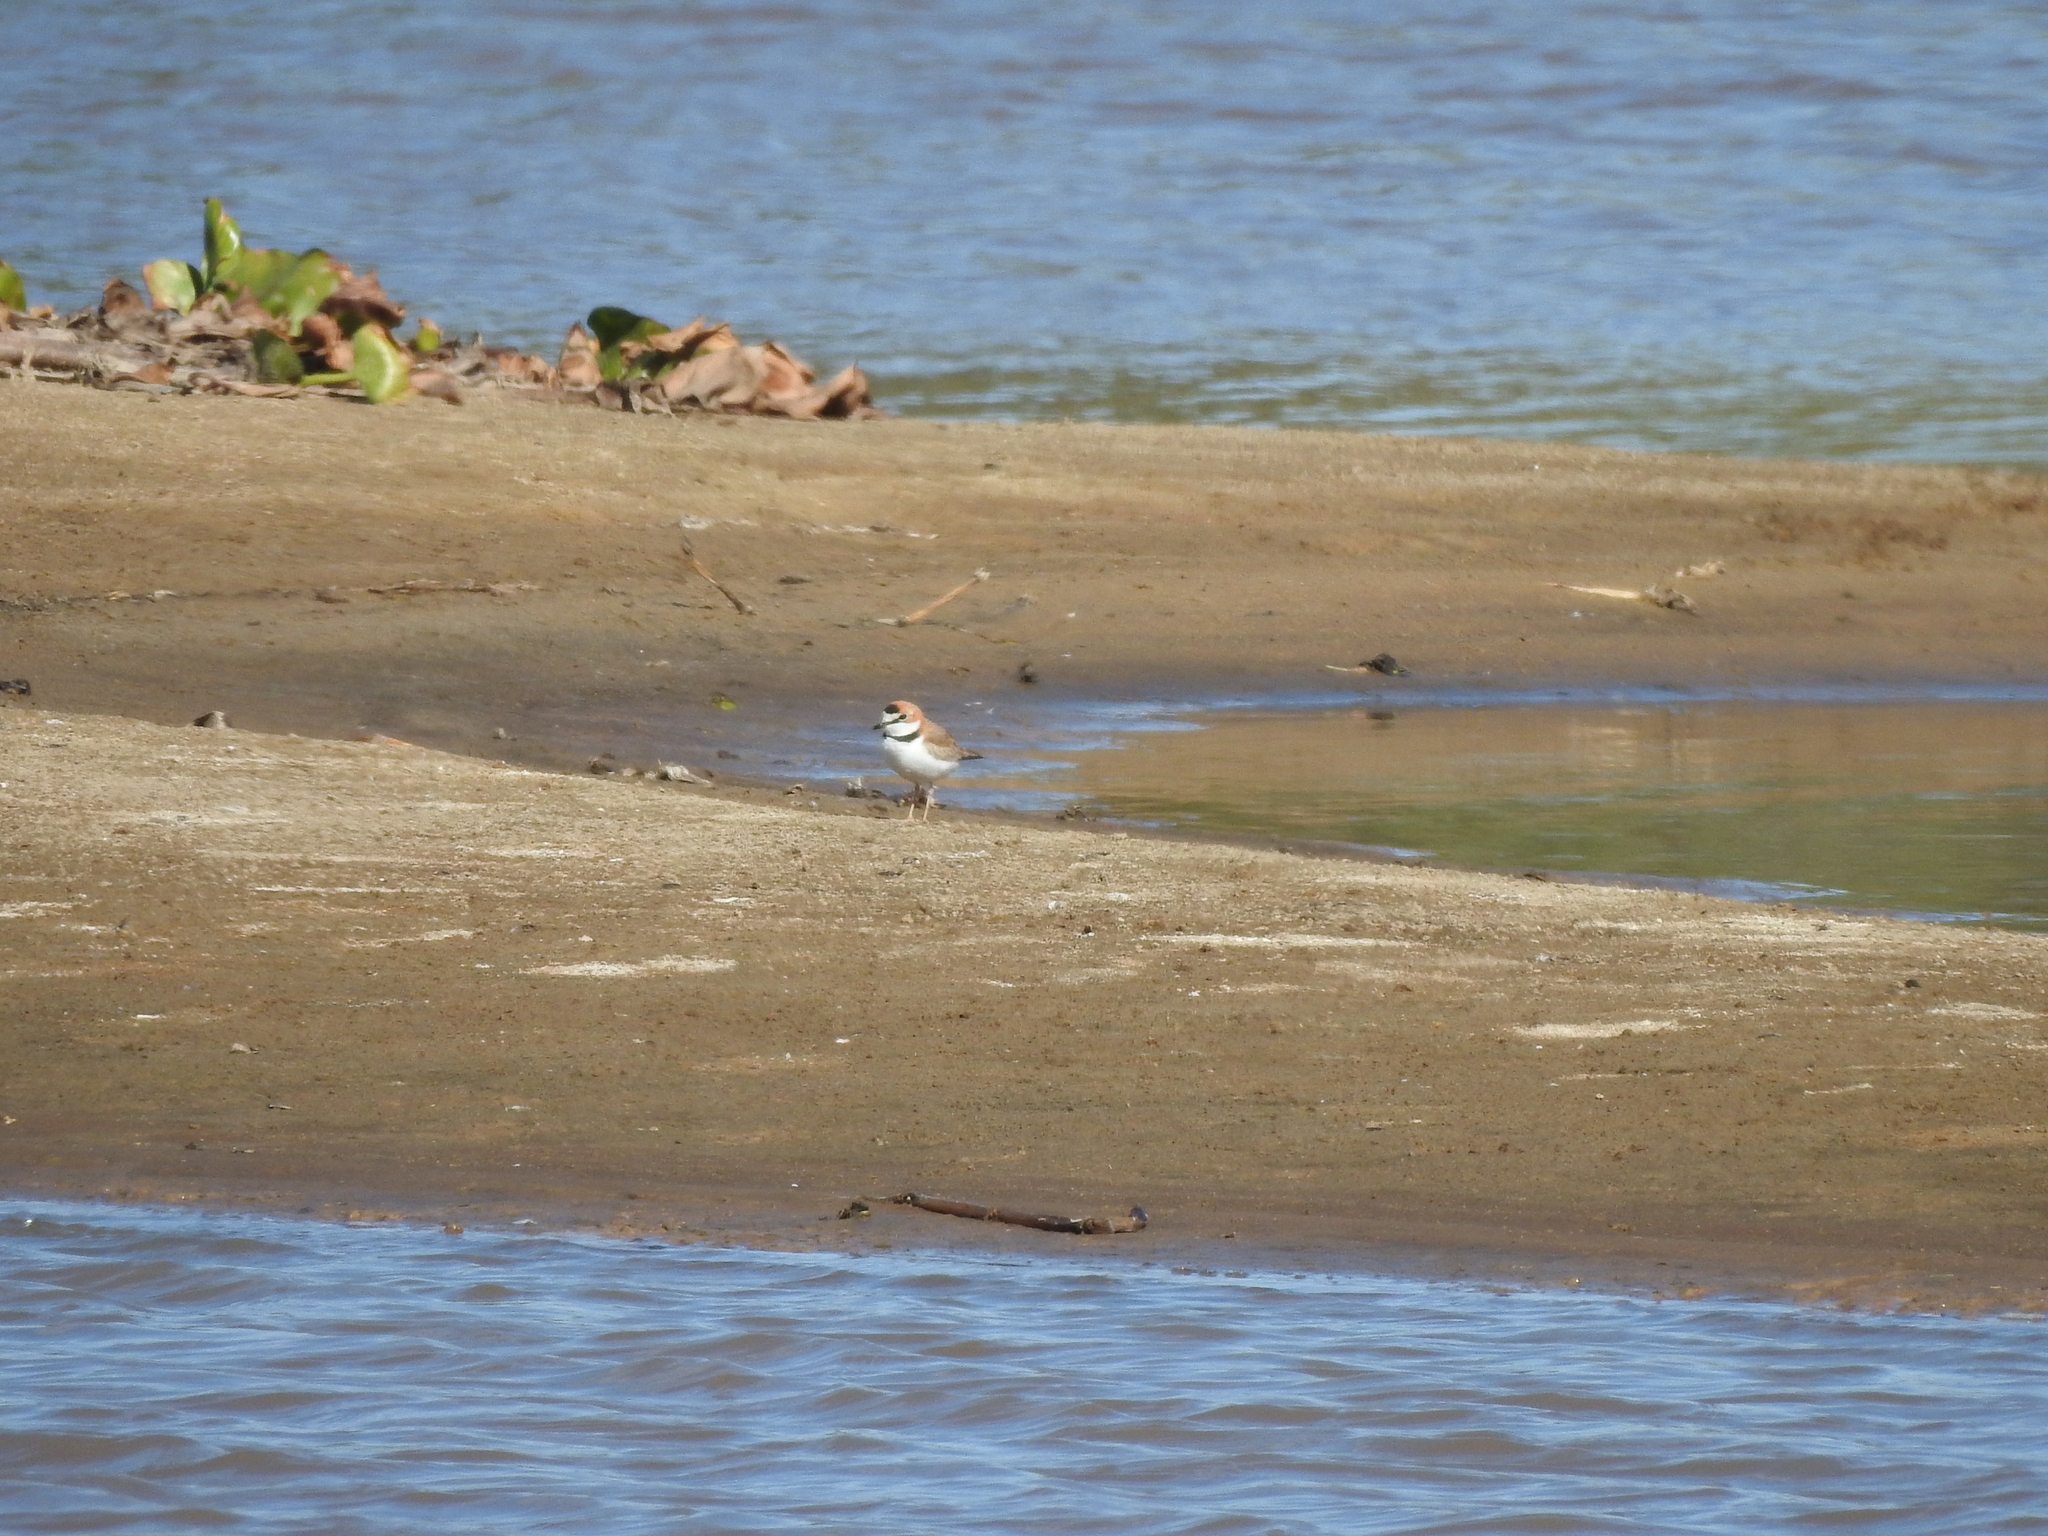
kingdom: Animalia
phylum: Chordata
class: Aves
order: Charadriiformes
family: Charadriidae
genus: Anarhynchus
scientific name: Anarhynchus
